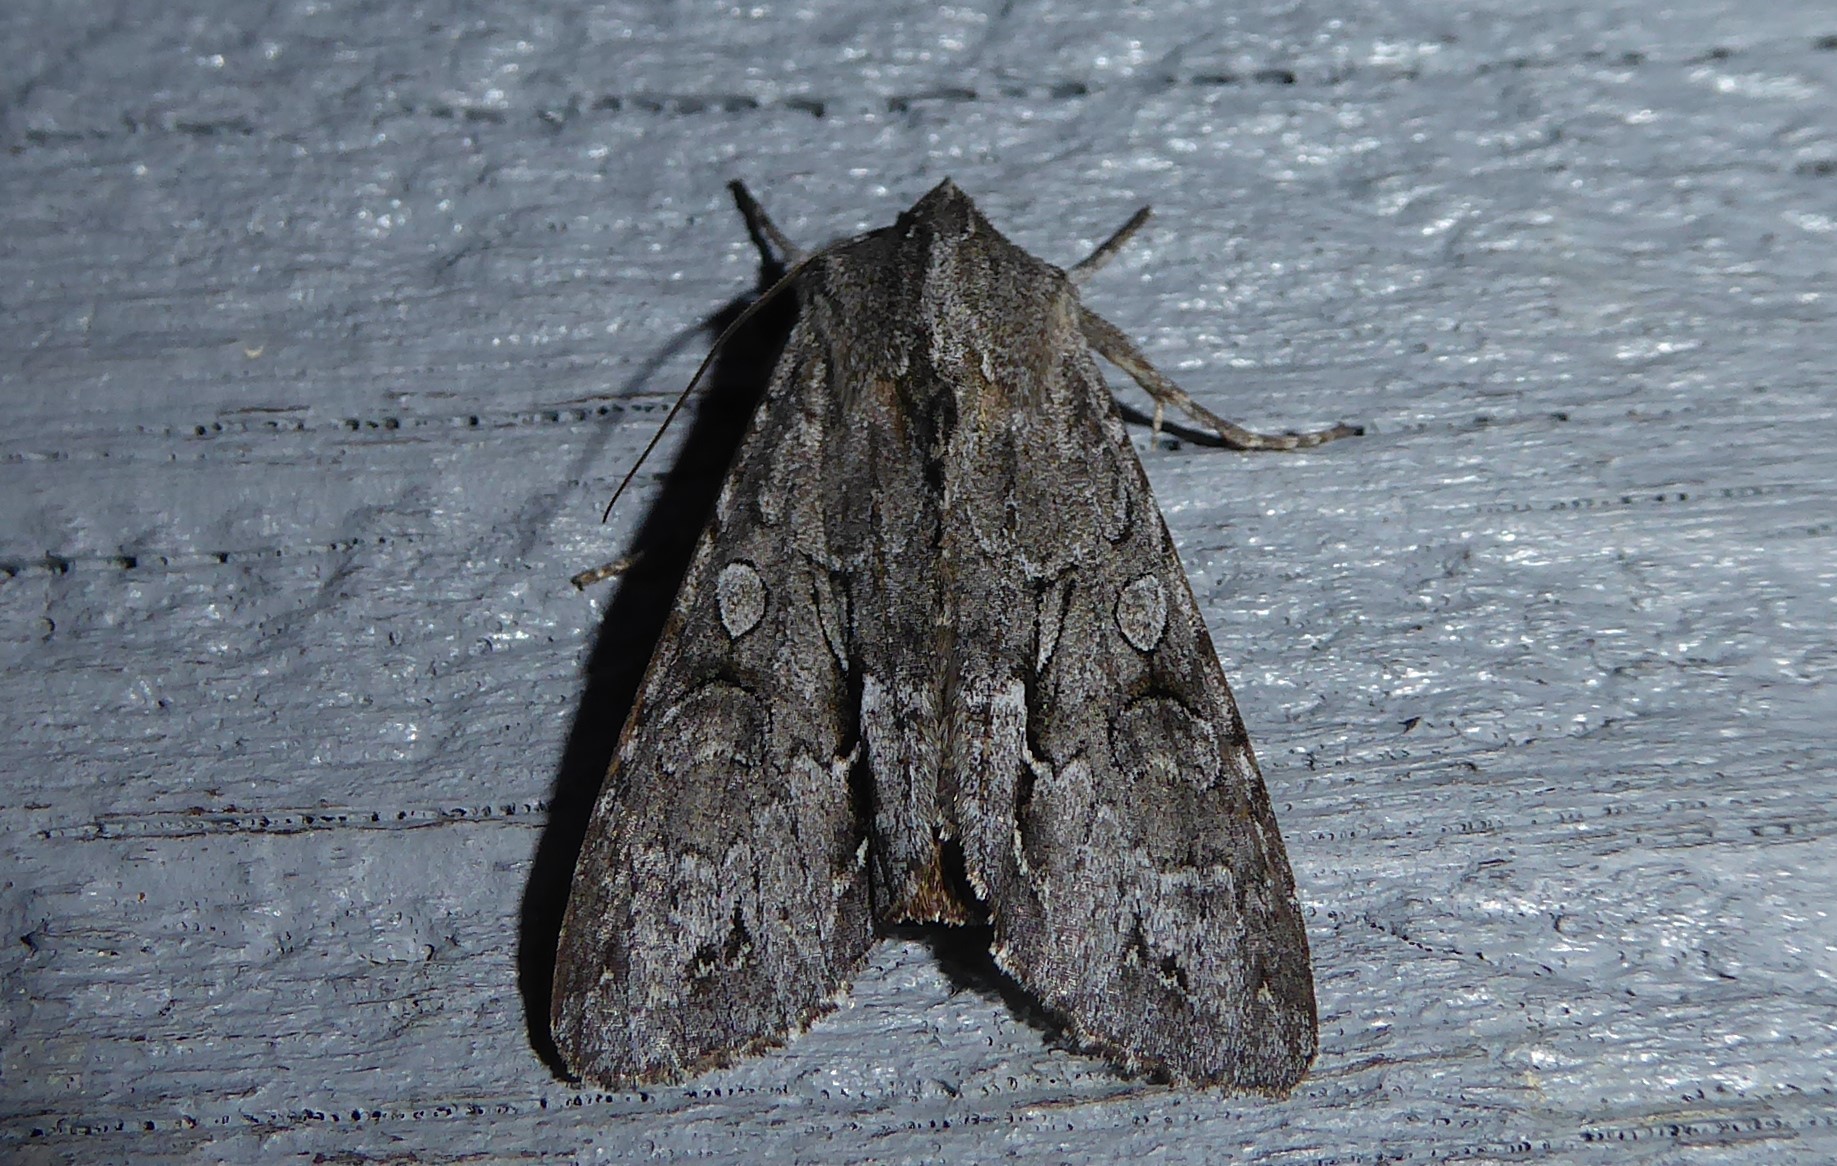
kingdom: Animalia
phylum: Arthropoda
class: Insecta
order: Lepidoptera
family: Noctuidae
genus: Ichneutica
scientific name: Ichneutica
